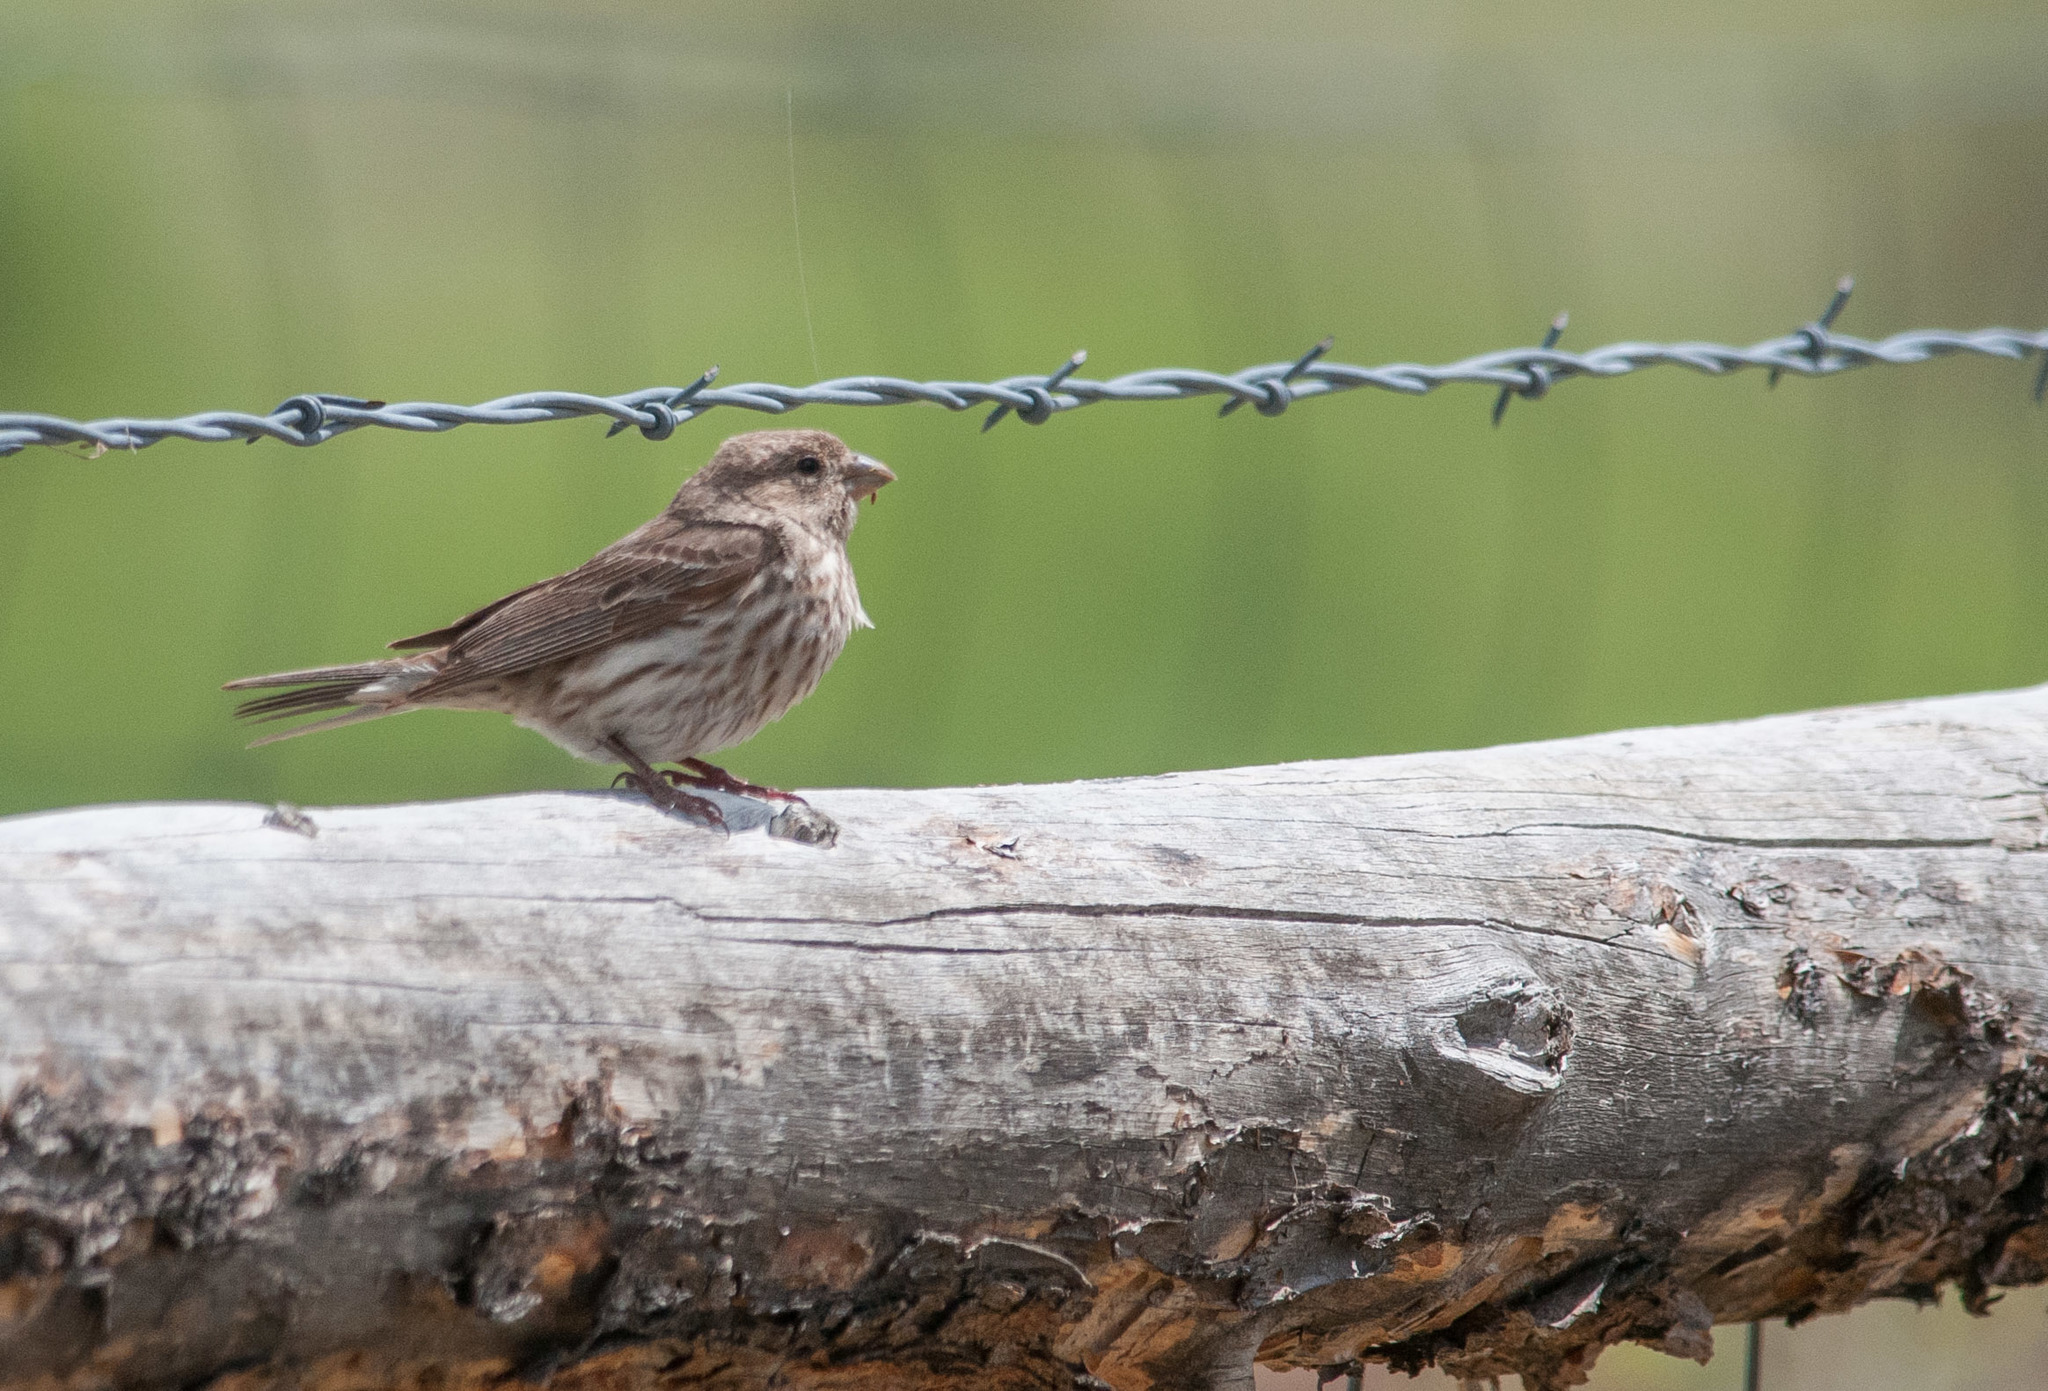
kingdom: Animalia
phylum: Chordata
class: Aves
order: Passeriformes
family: Fringillidae
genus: Haemorhous
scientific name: Haemorhous mexicanus
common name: House finch
